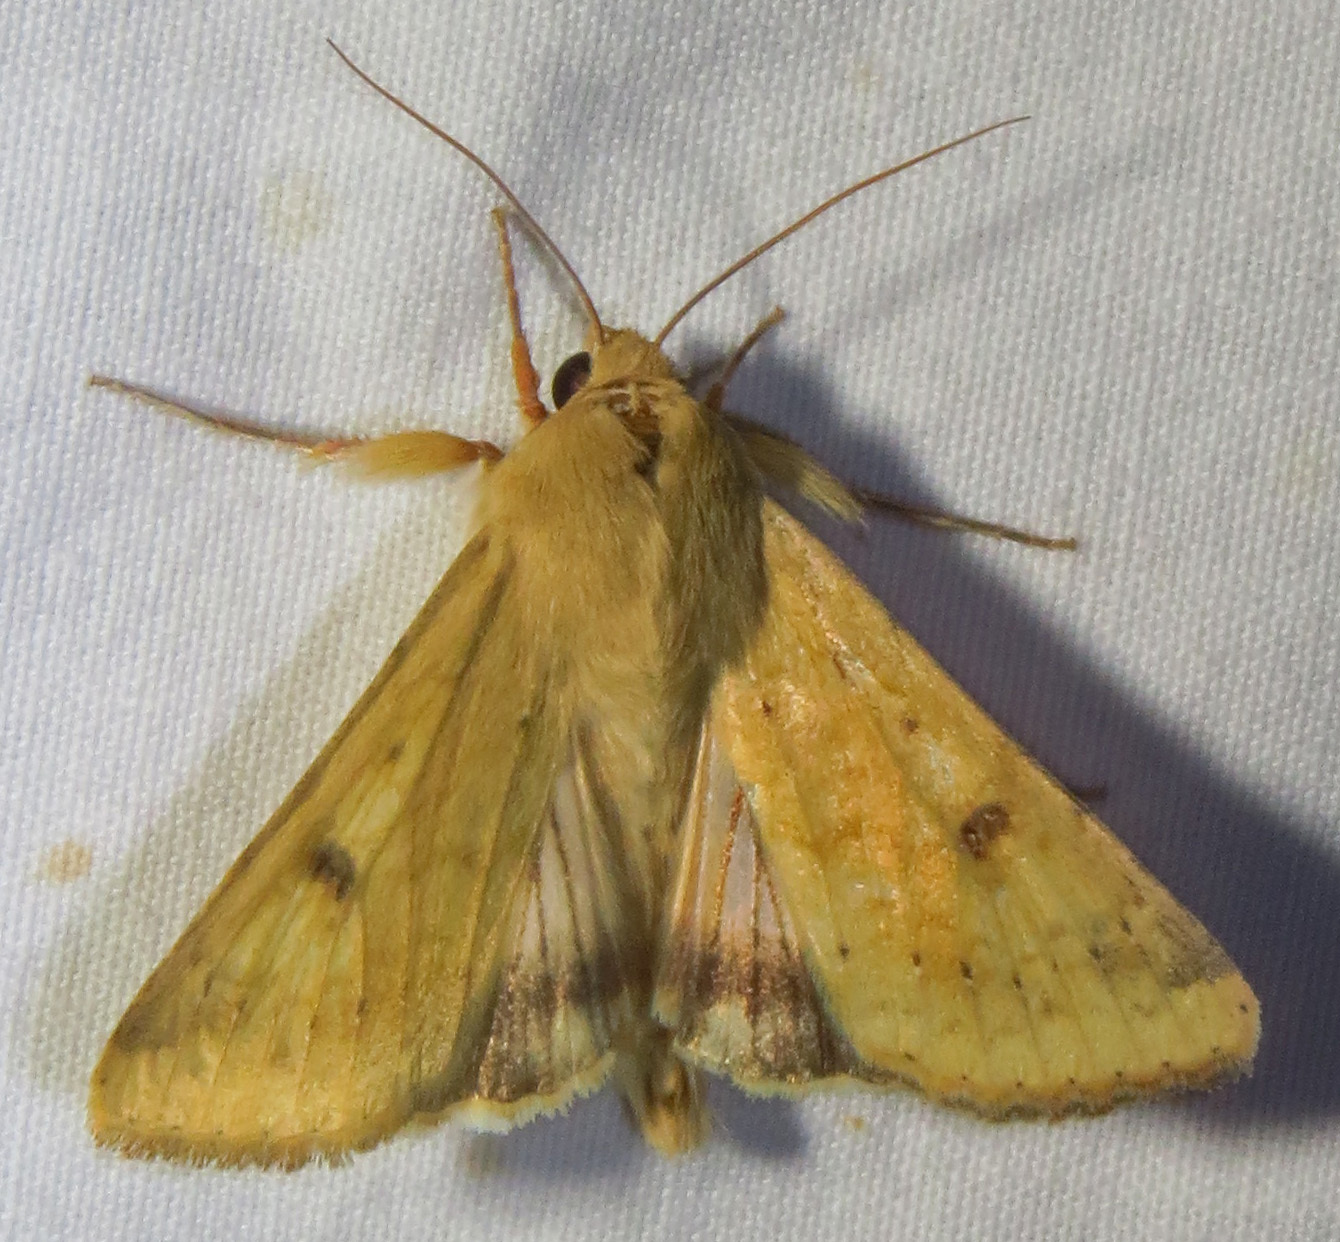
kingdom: Animalia
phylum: Arthropoda
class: Insecta
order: Lepidoptera
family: Noctuidae
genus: Helicoverpa
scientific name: Helicoverpa zea
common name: Bollworm
